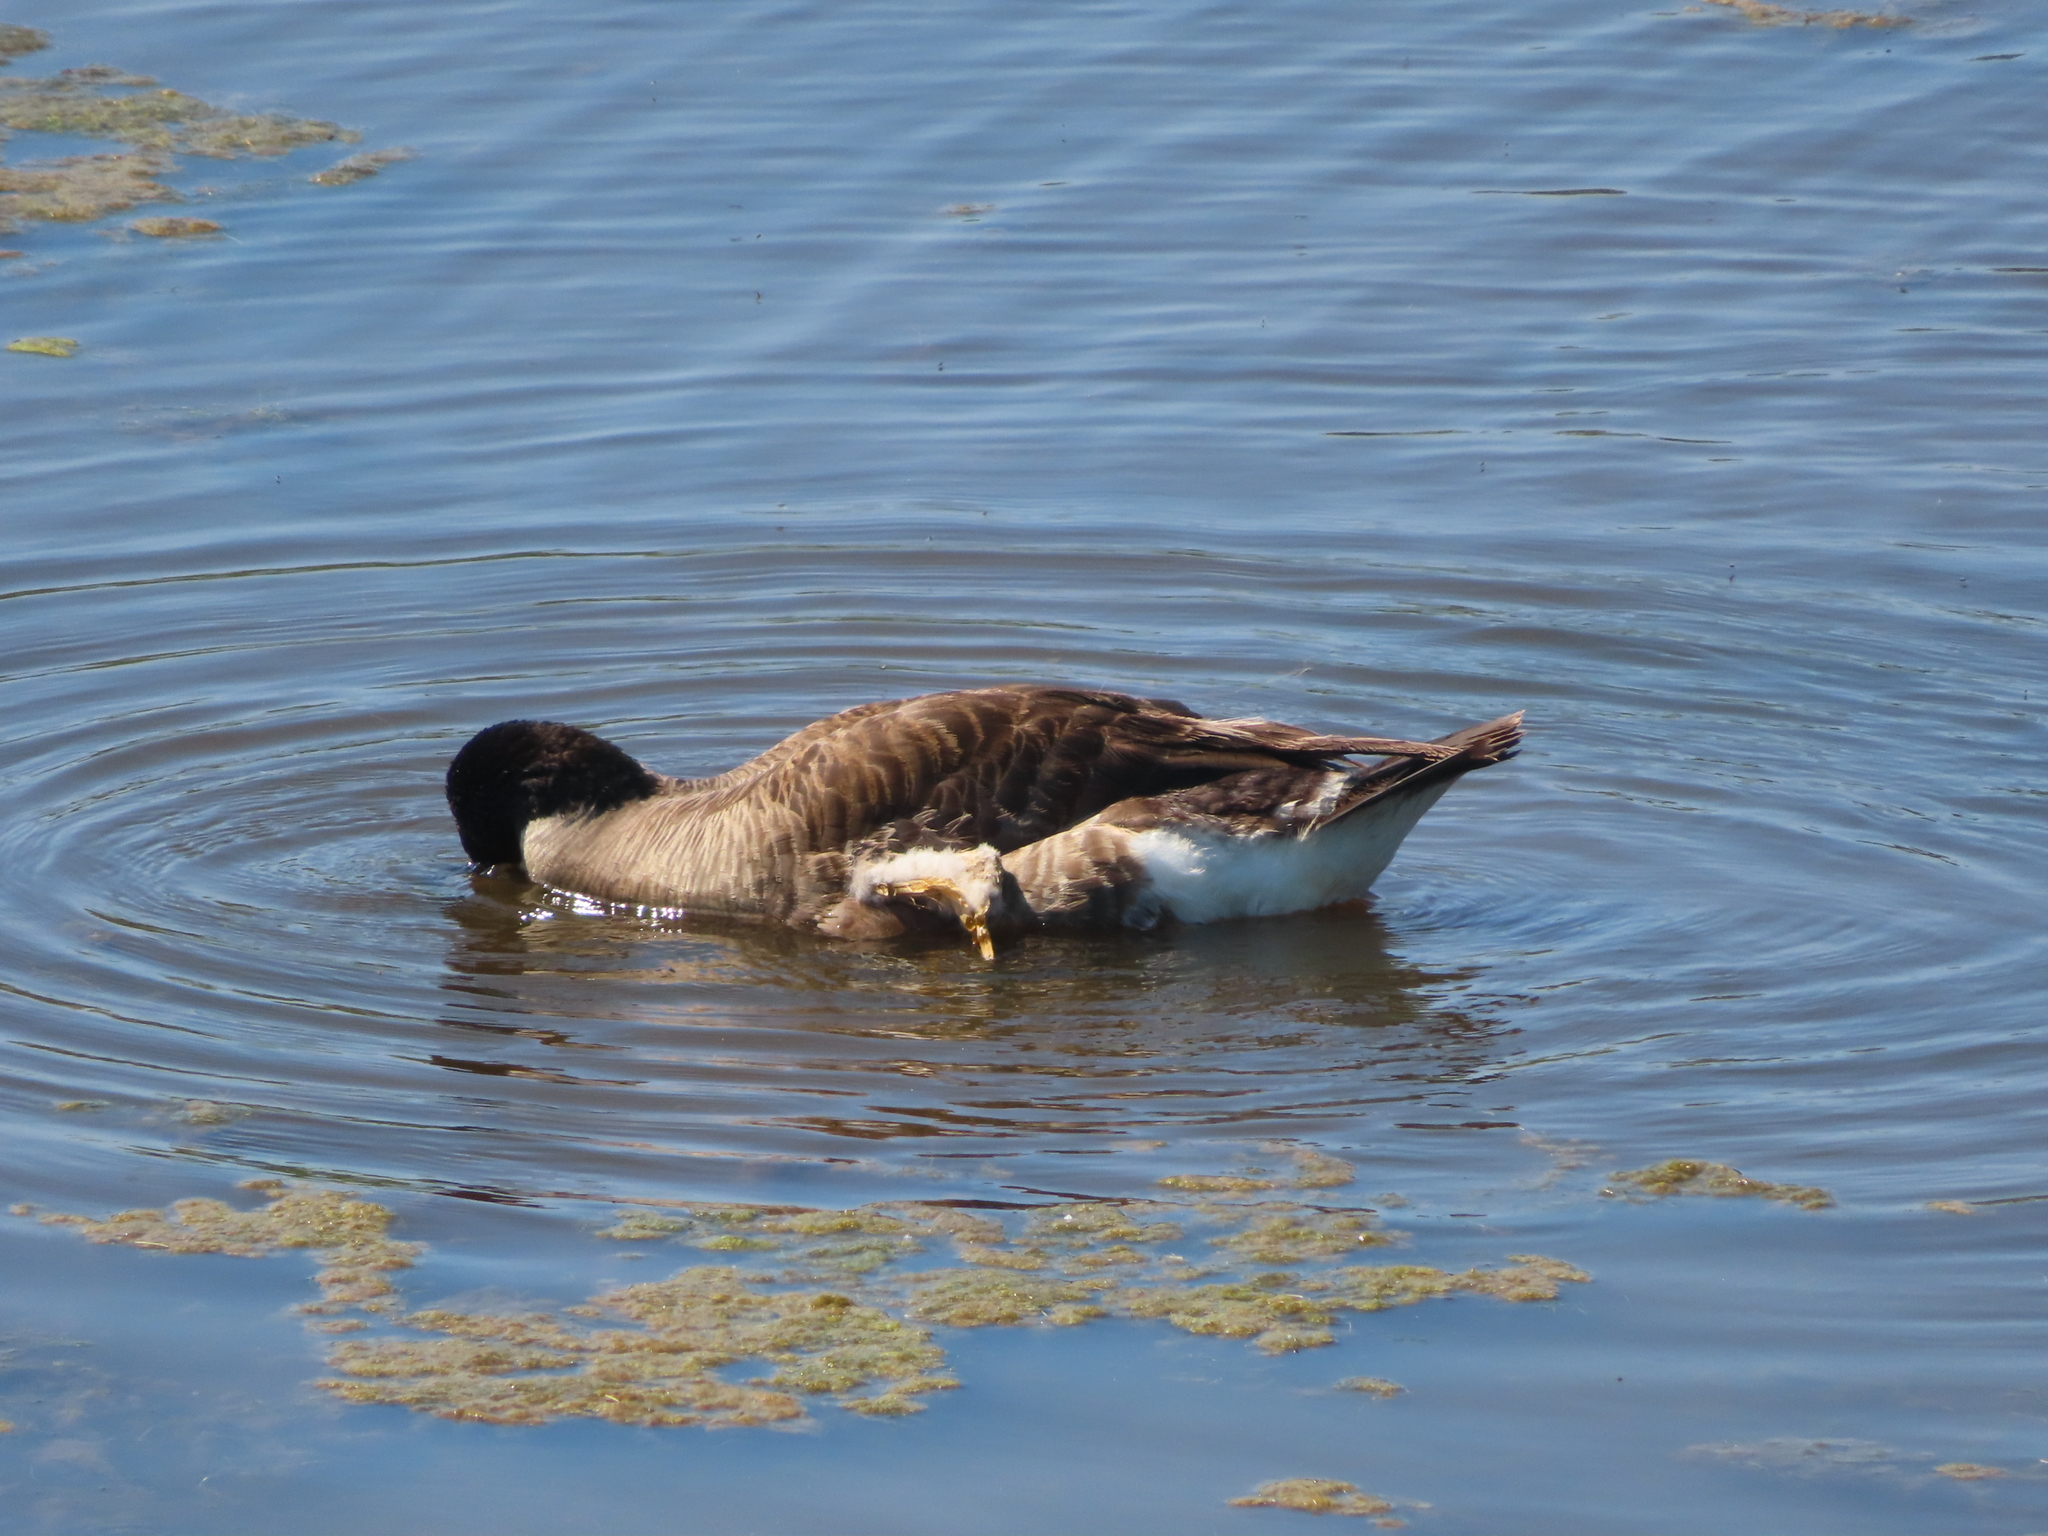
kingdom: Animalia
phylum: Chordata
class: Aves
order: Anseriformes
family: Anatidae
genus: Branta
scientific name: Branta canadensis
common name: Canada goose
